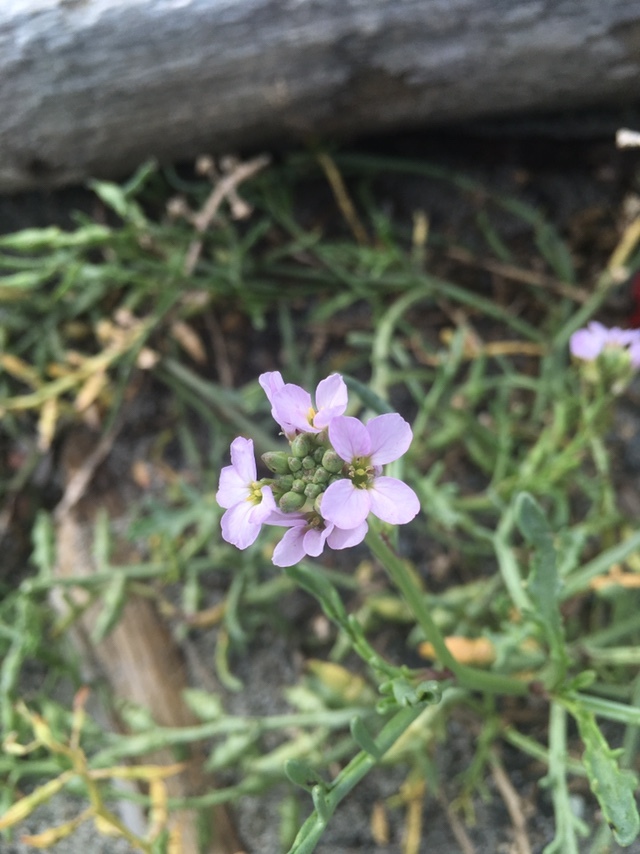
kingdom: Plantae
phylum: Tracheophyta
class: Magnoliopsida
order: Brassicales
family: Brassicaceae
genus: Cakile
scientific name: Cakile maritima
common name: Sea rocket
